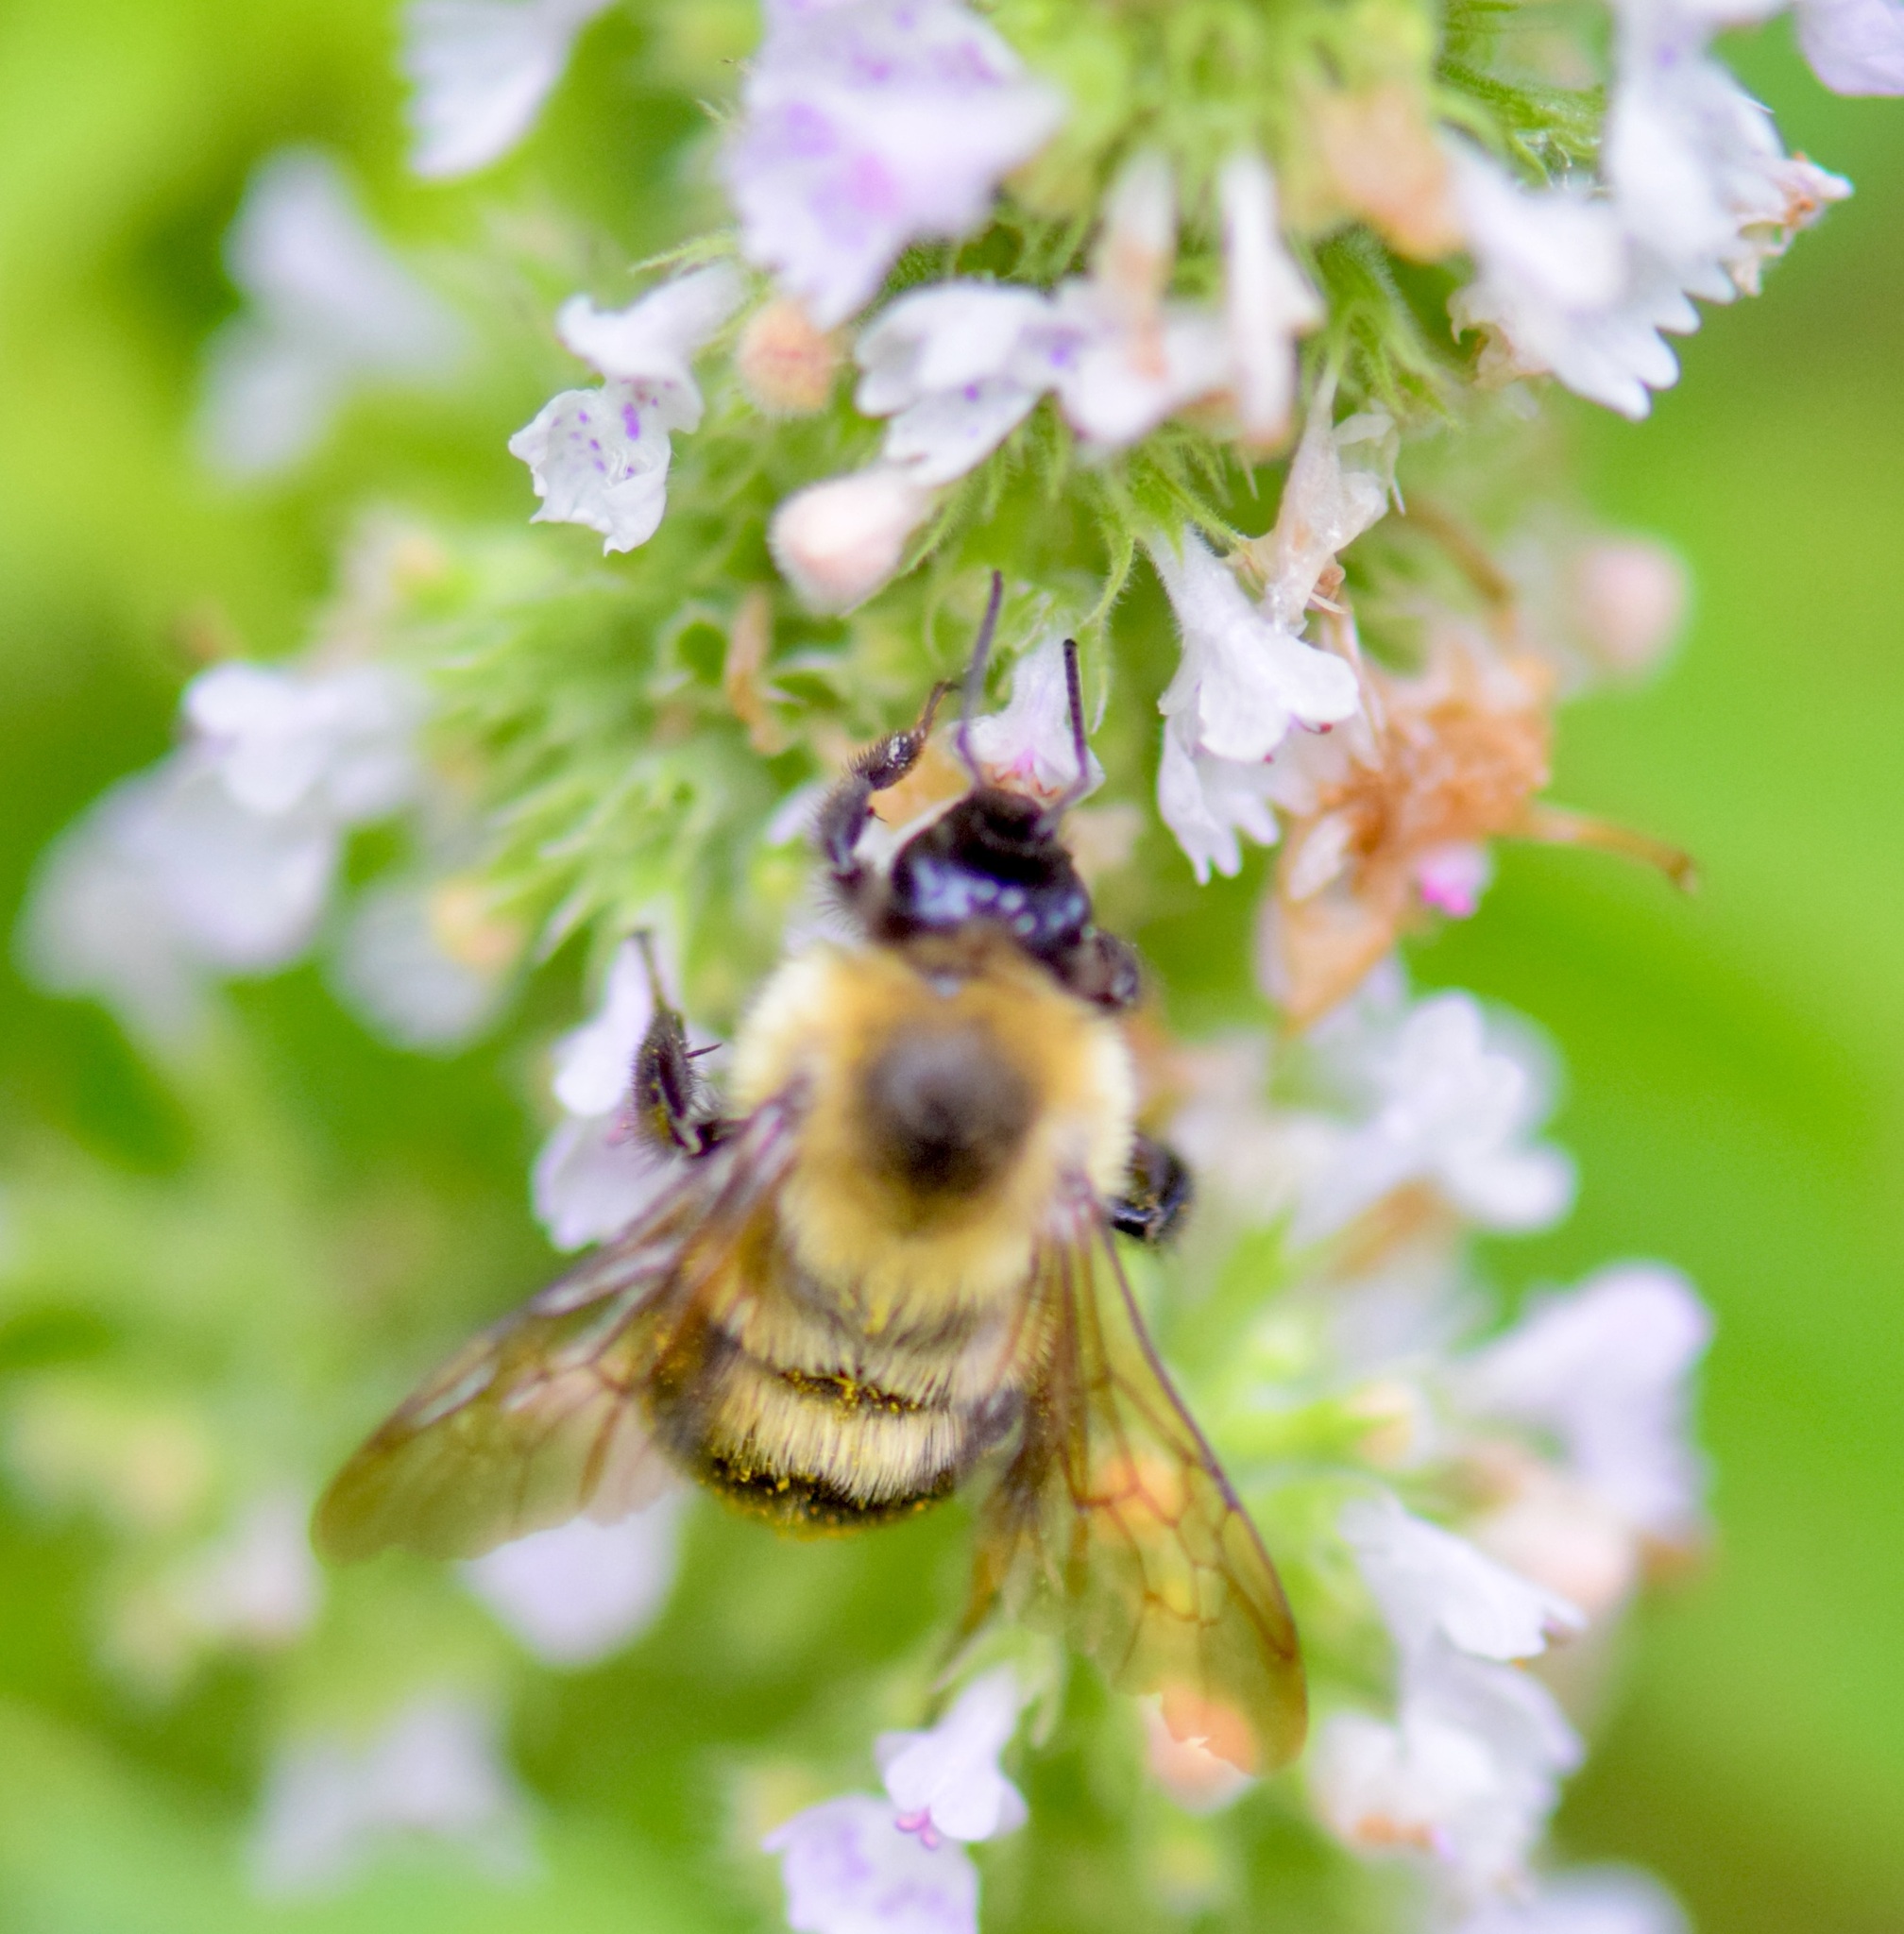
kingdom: Animalia
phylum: Arthropoda
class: Insecta
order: Hymenoptera
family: Apidae
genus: Bombus
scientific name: Bombus bimaculatus
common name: Two-spotted bumble bee
